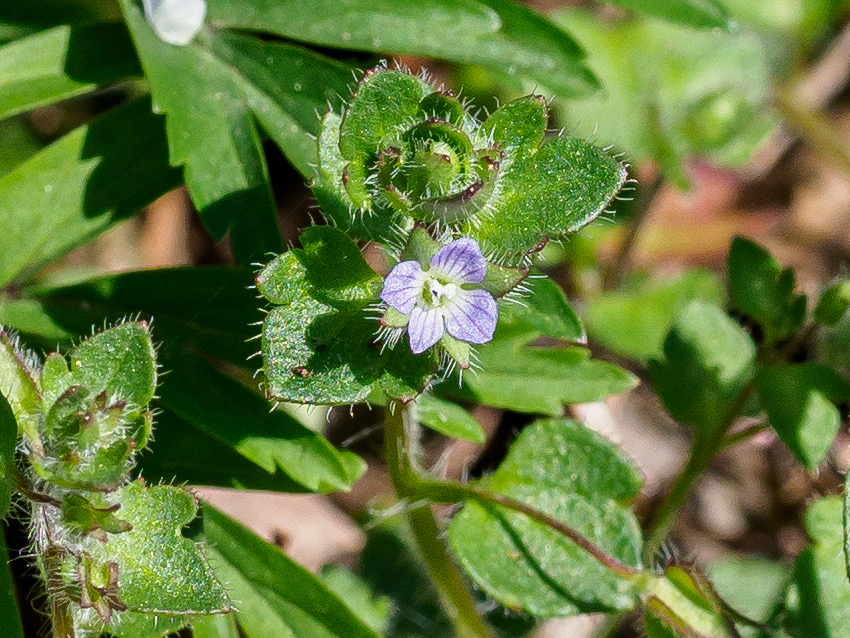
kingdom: Plantae
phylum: Tracheophyta
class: Magnoliopsida
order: Lamiales
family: Plantaginaceae
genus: Veronica
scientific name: Veronica sublobata
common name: False ivy-leaved speedwell
